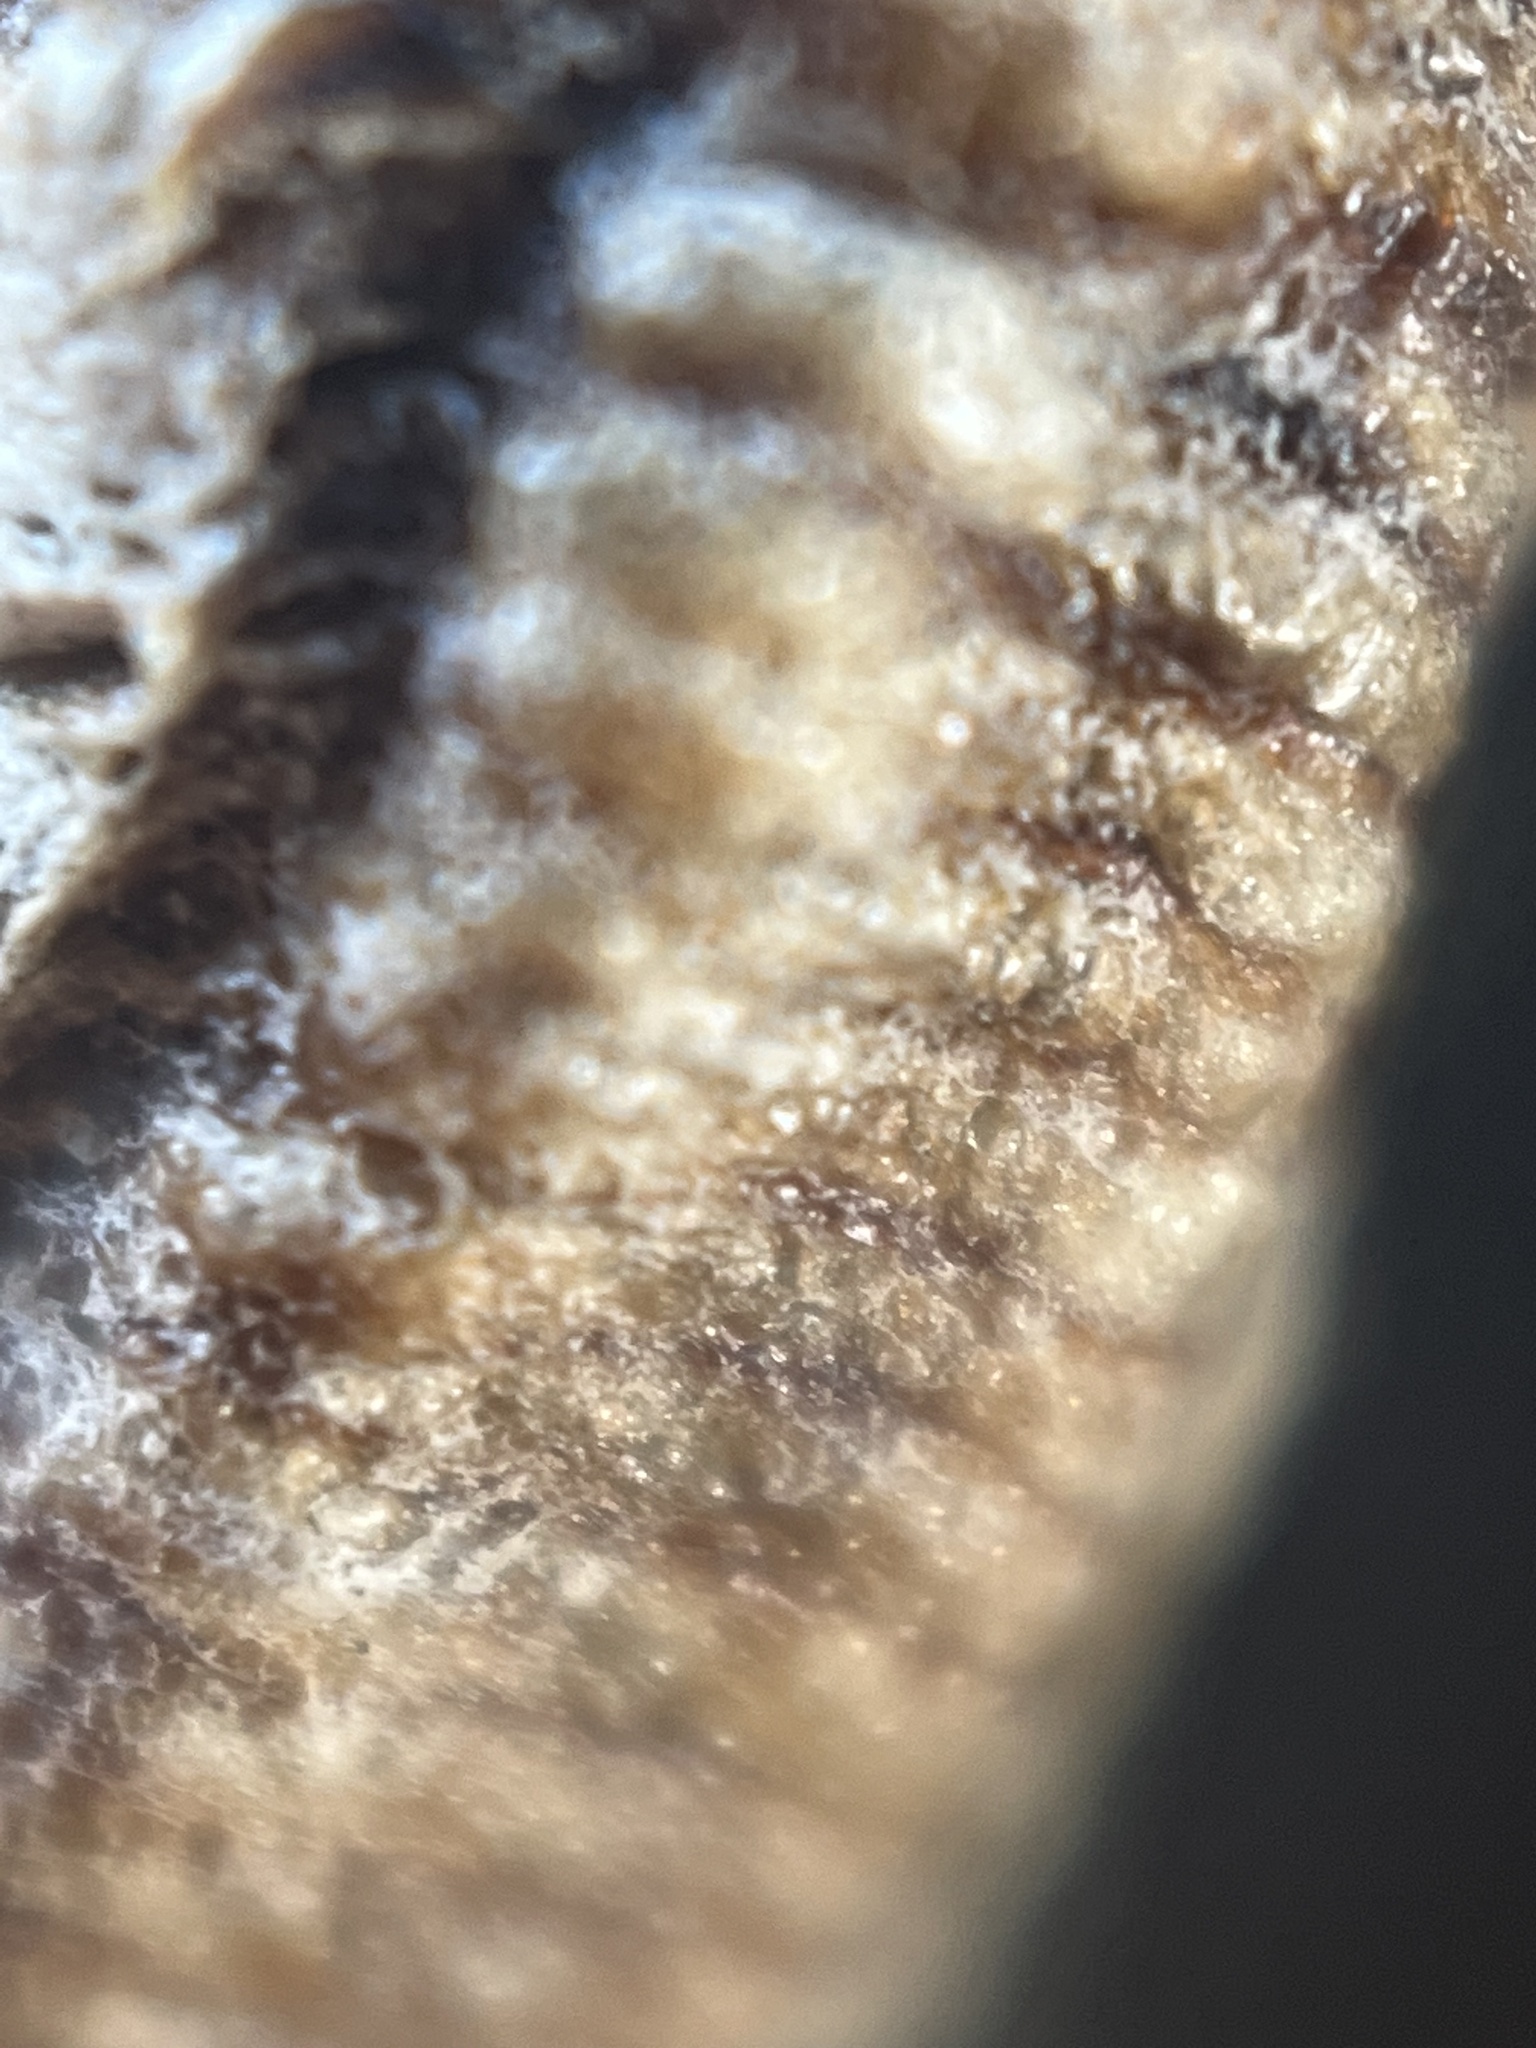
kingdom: Animalia
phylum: Arthropoda
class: Insecta
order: Mantodea
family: Mantidae
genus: Stagmomantis
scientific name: Stagmomantis carolina
